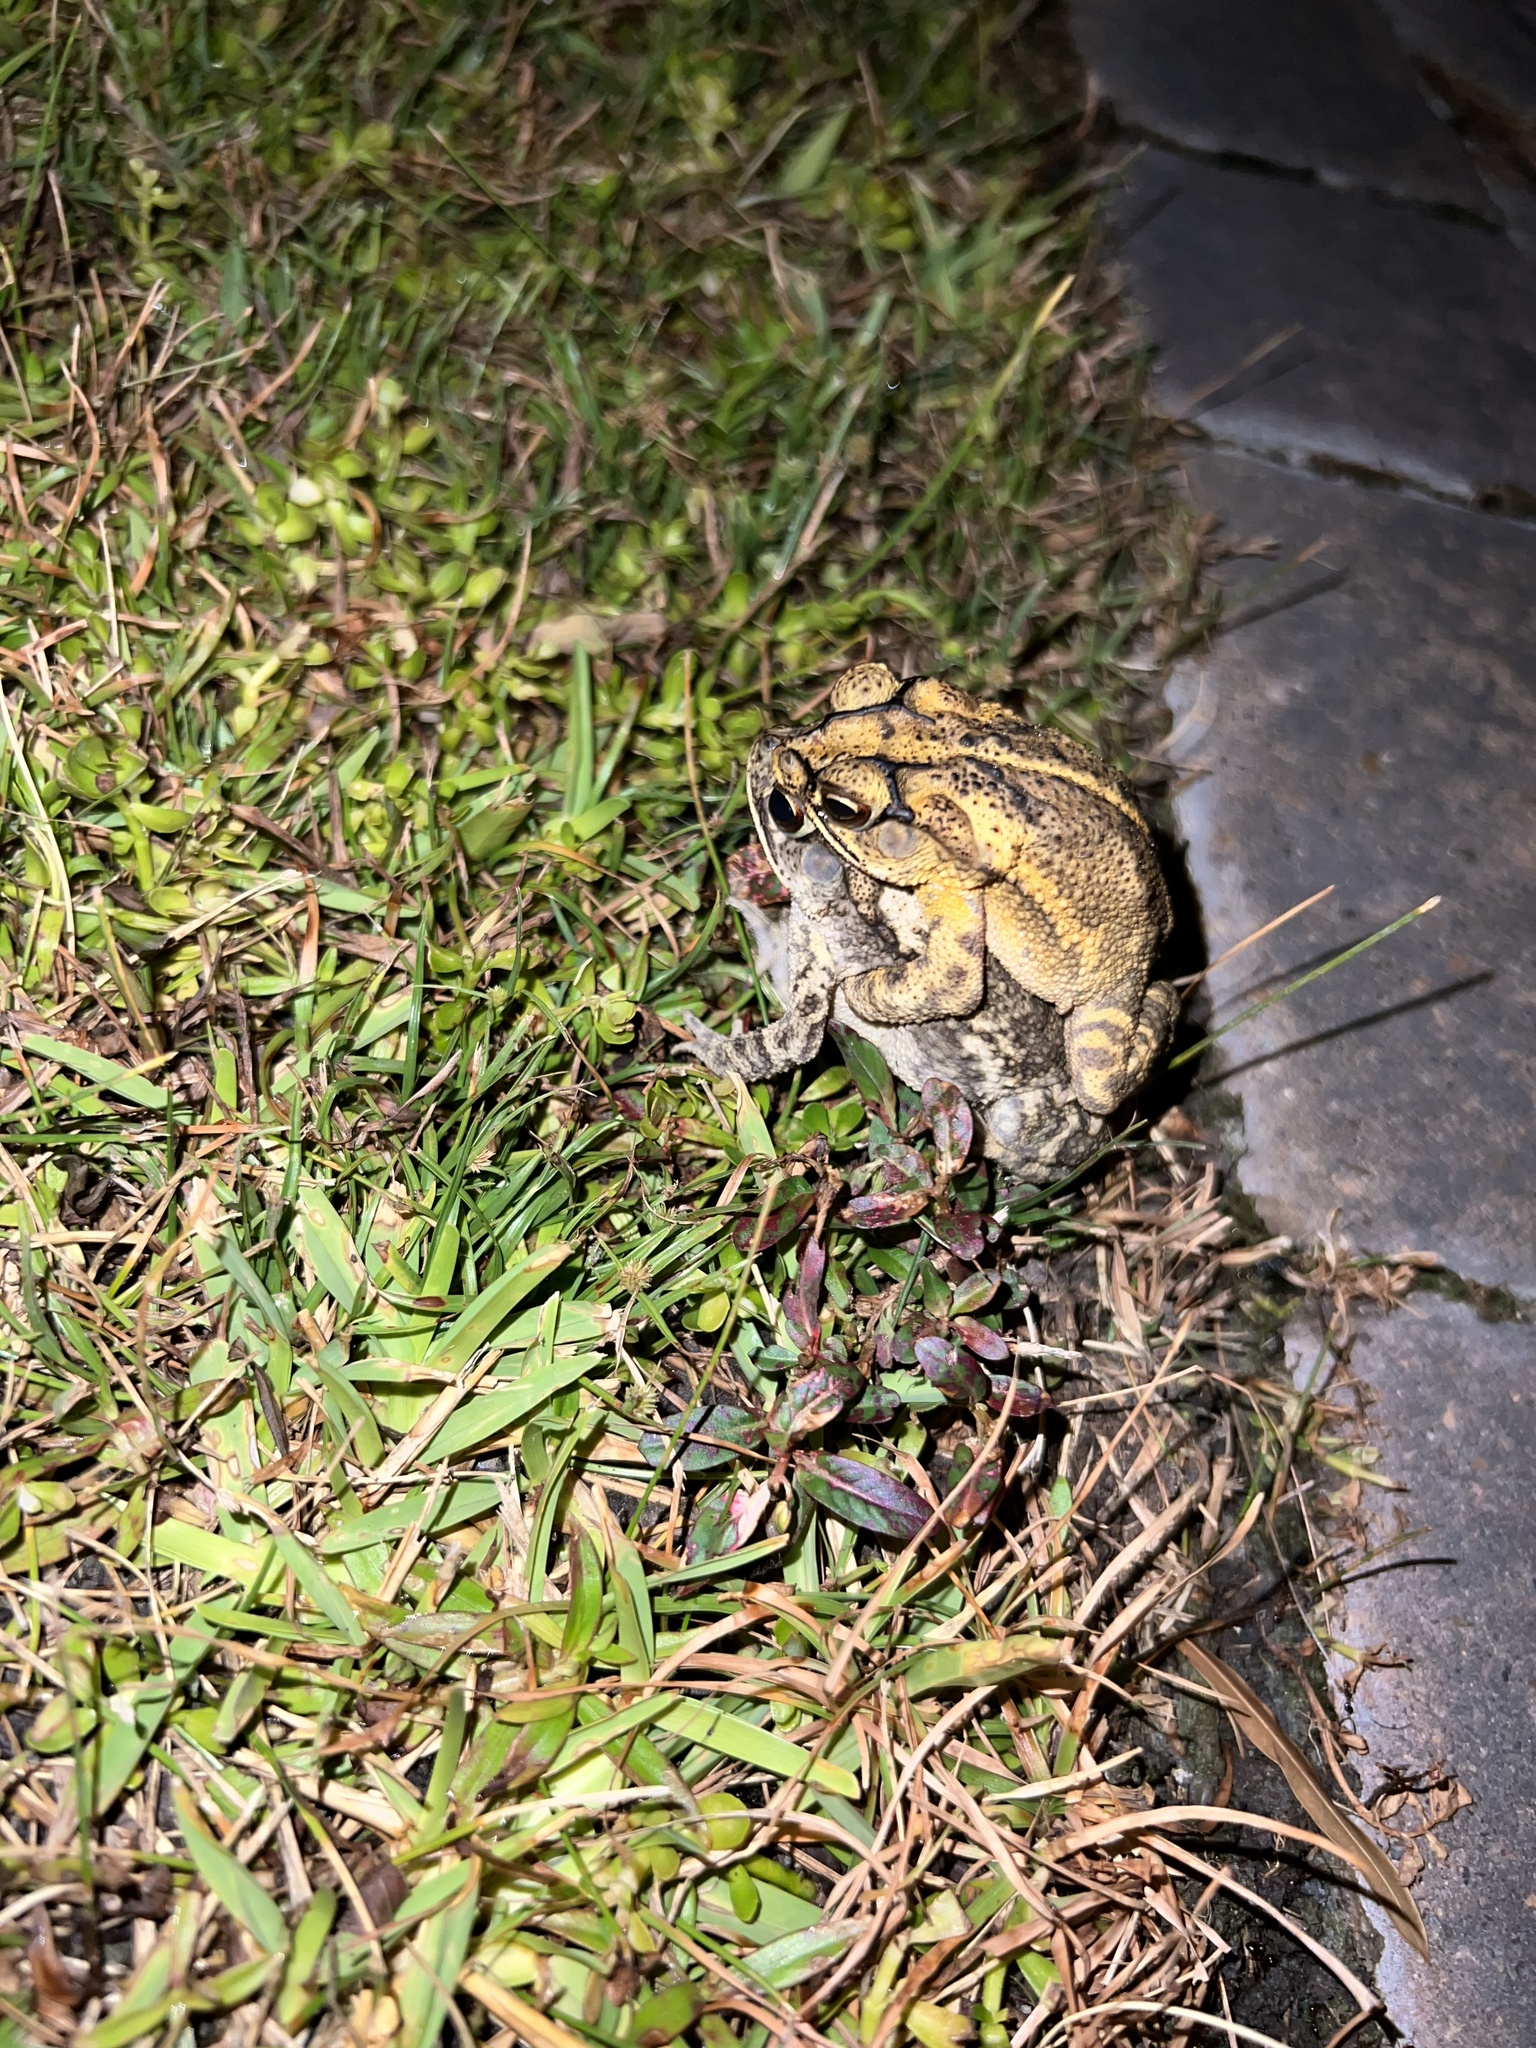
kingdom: Animalia
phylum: Chordata
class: Amphibia
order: Anura
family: Bufonidae
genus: Incilius
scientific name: Incilius nebulifer
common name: Gulf coast toad
